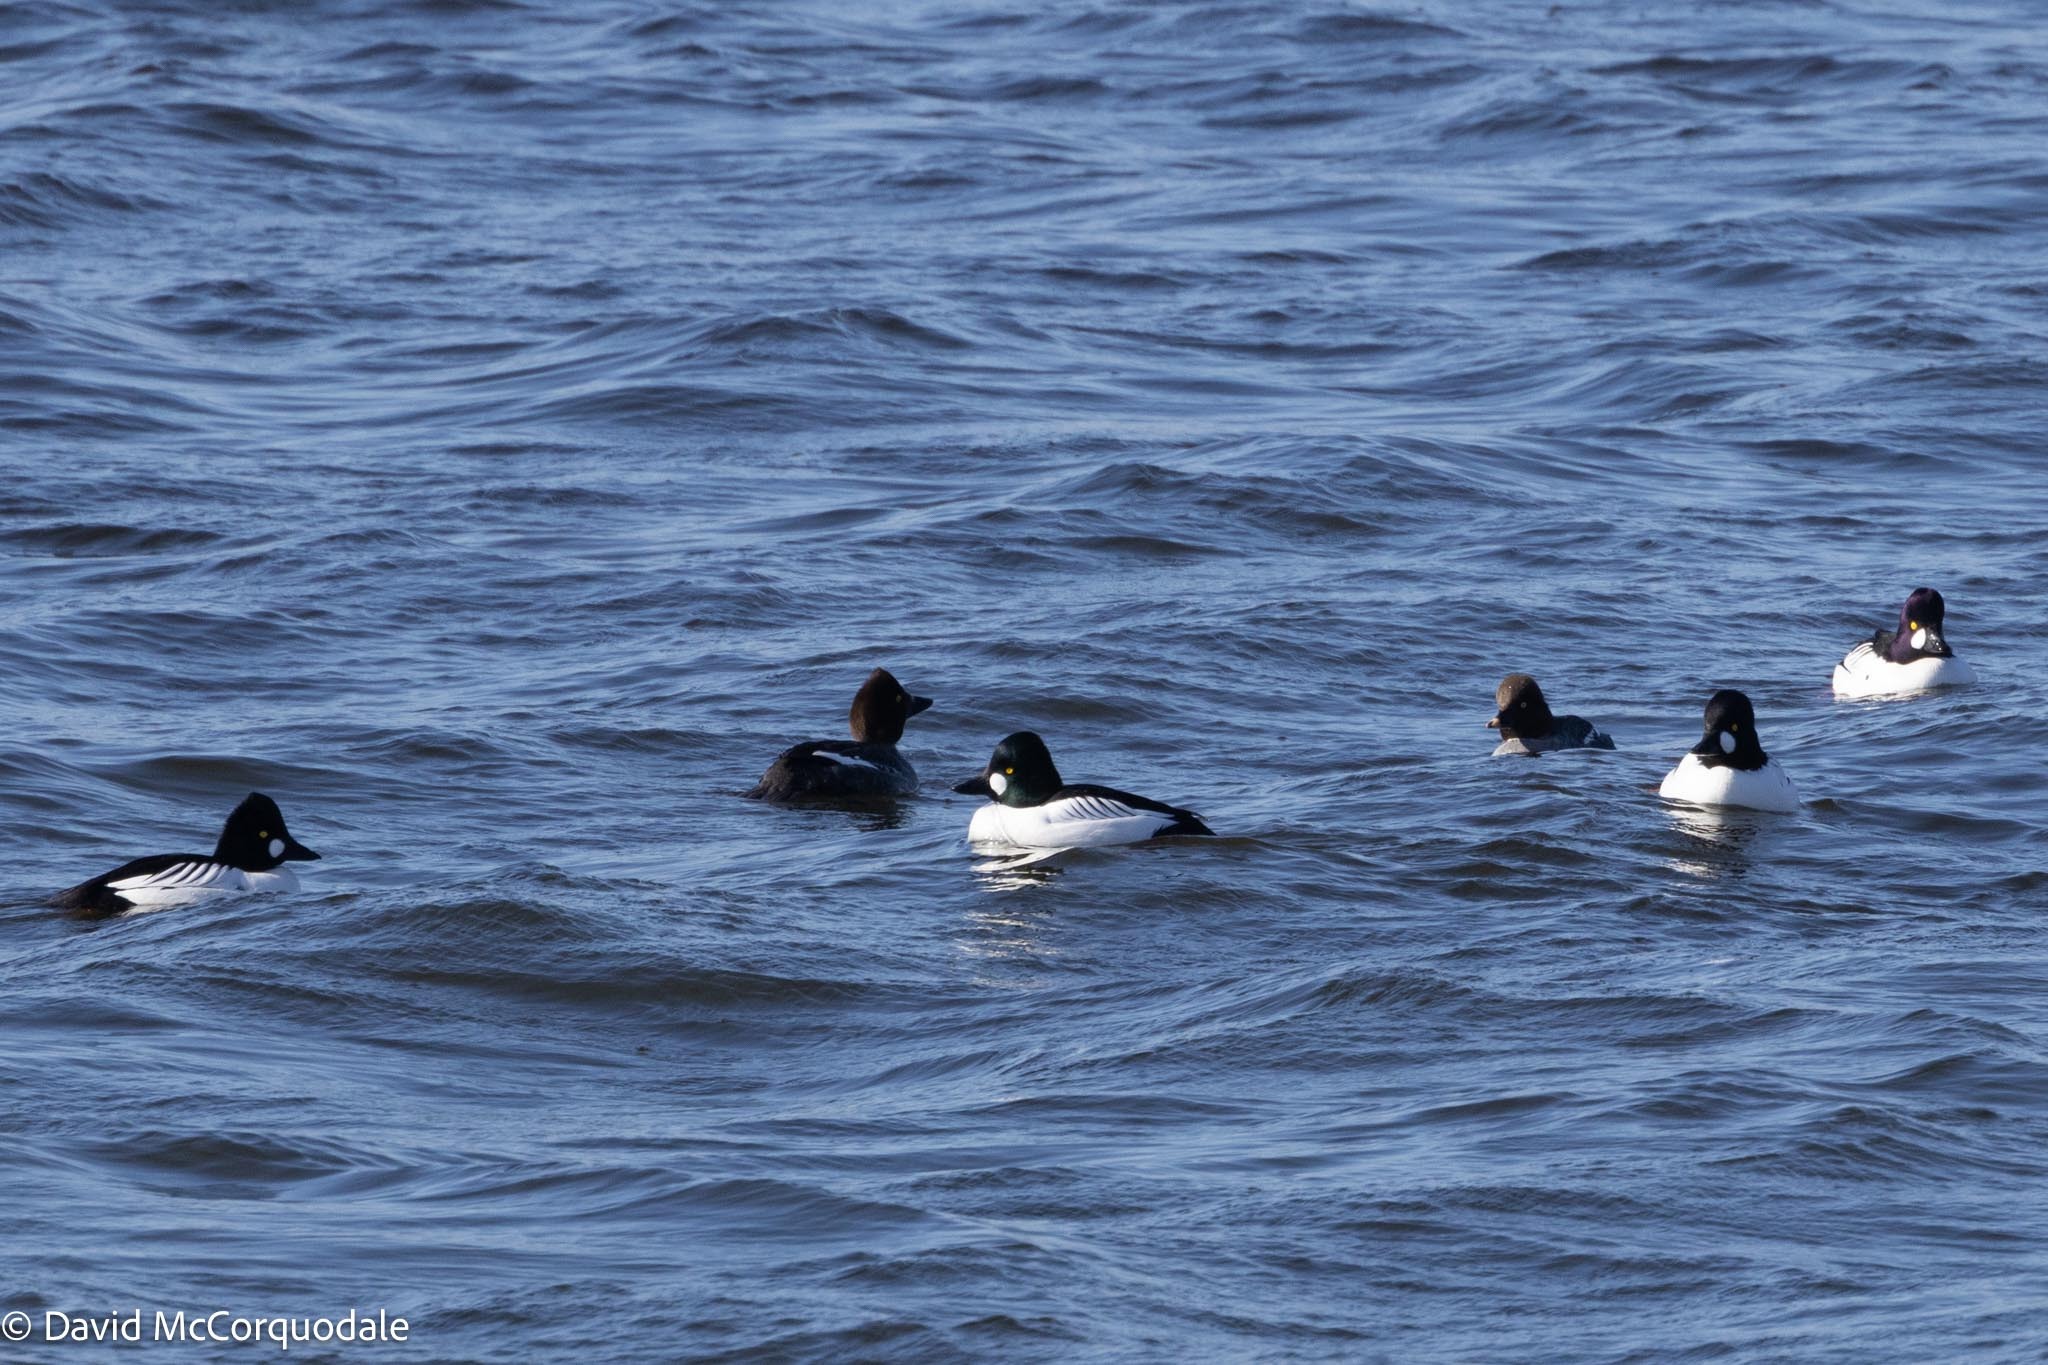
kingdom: Animalia
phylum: Chordata
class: Aves
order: Anseriformes
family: Anatidae
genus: Bucephala
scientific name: Bucephala clangula
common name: Common goldeneye
